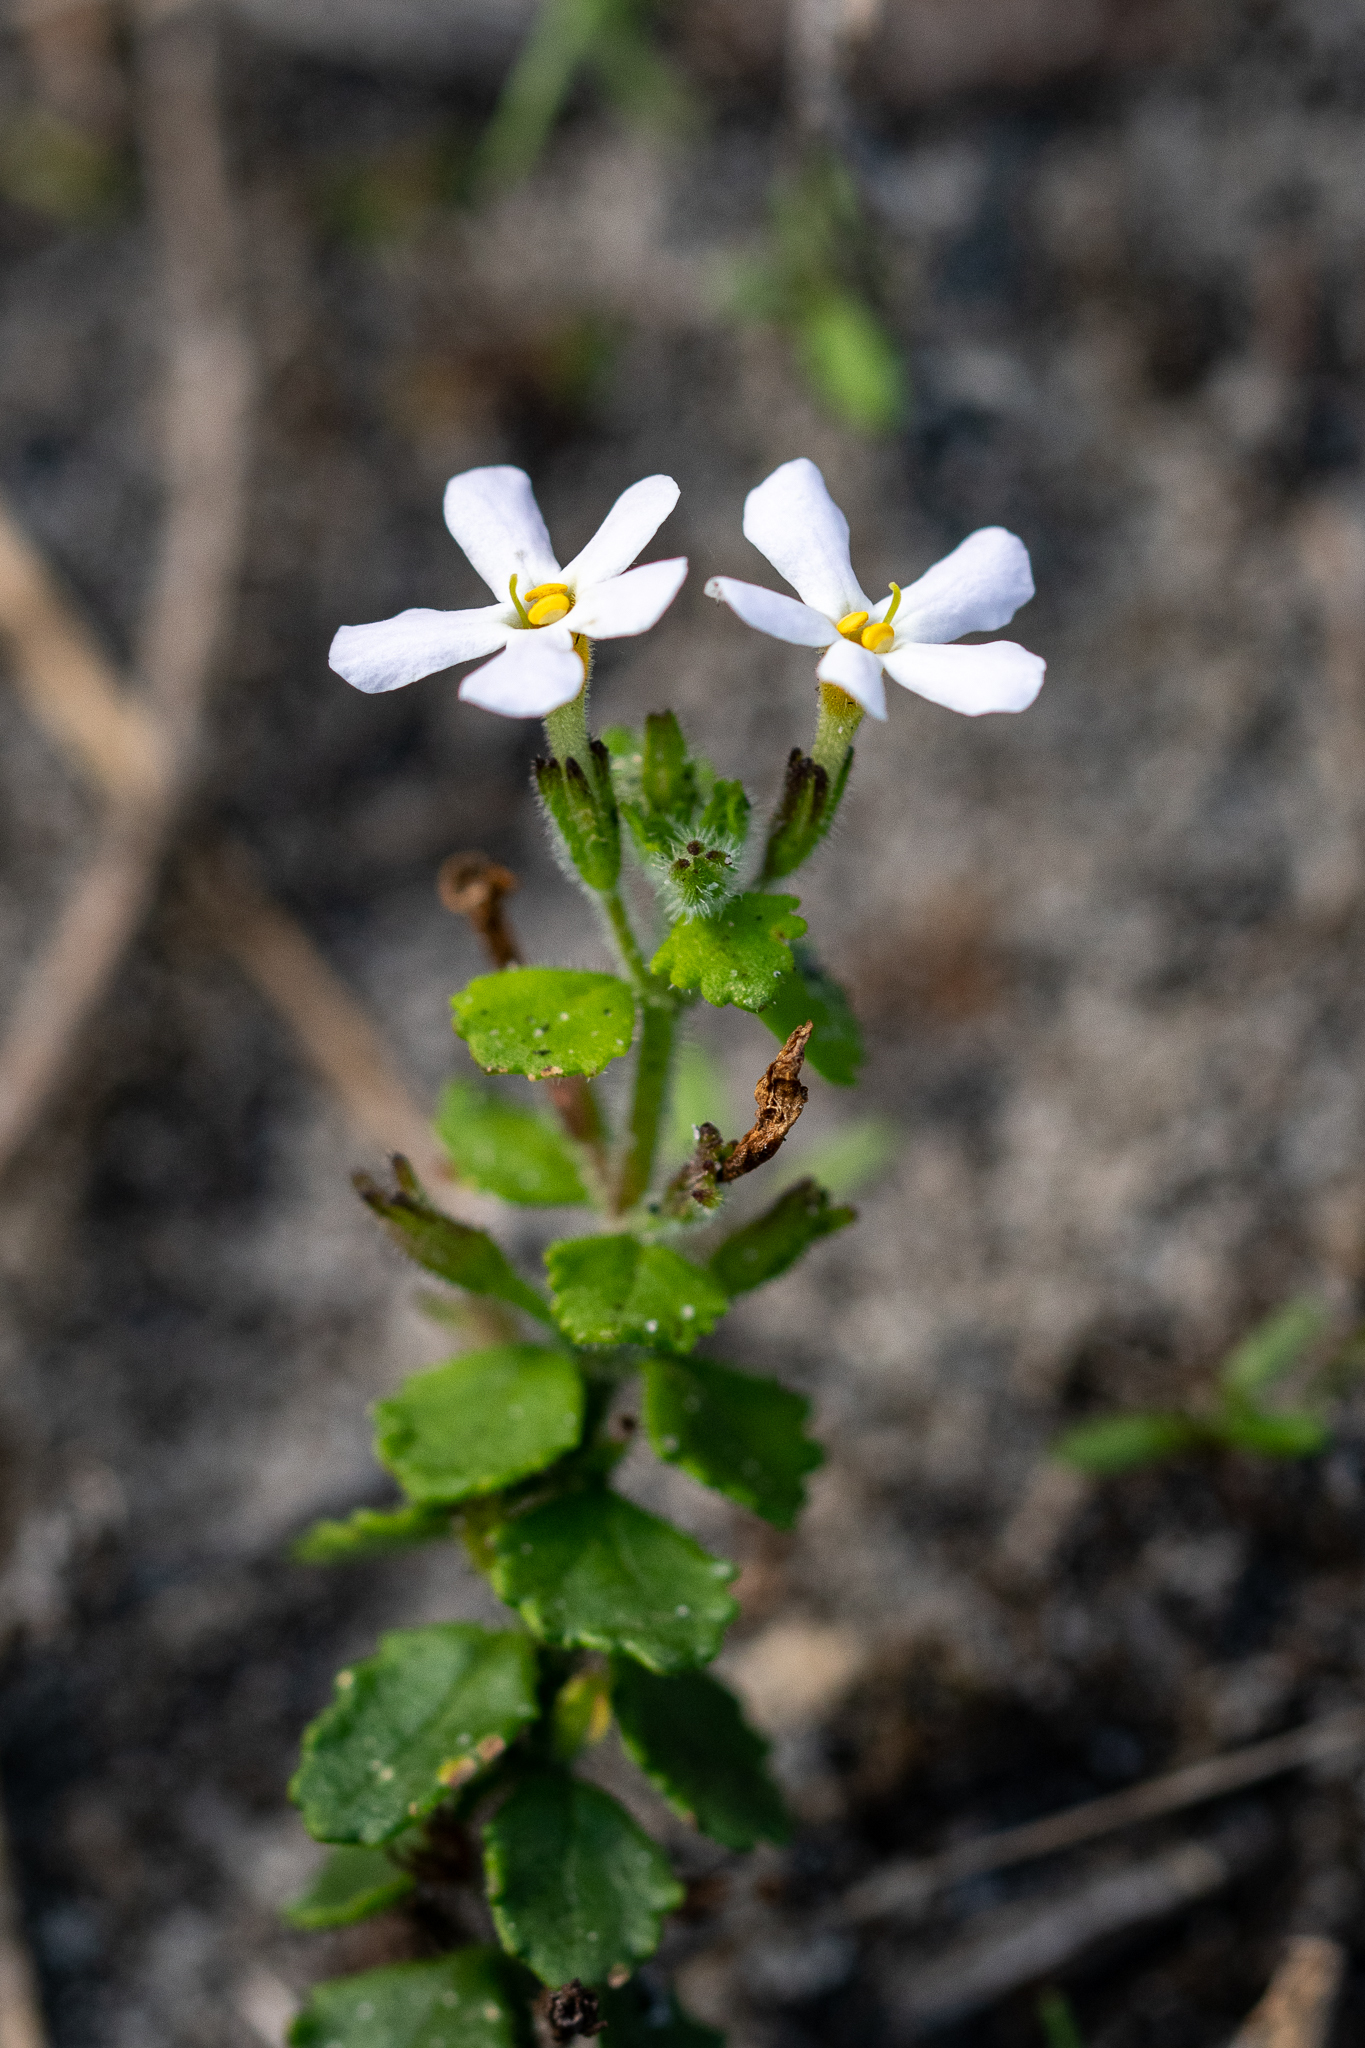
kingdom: Plantae
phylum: Tracheophyta
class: Magnoliopsida
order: Lamiales
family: Scrophulariaceae
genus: Chaenostoma
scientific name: Chaenostoma hispidum
